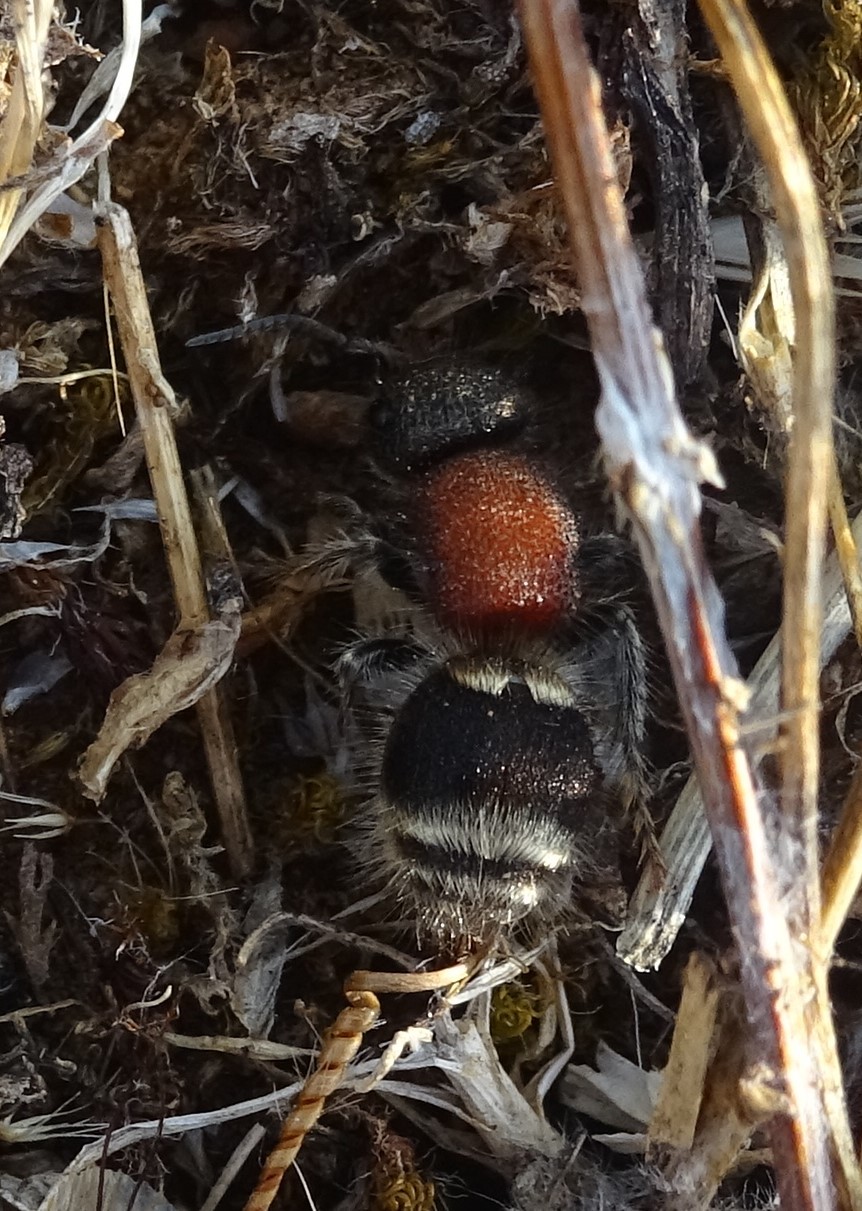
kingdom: Animalia
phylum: Arthropoda
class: Insecta
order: Hymenoptera
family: Mutillidae
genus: Tropidotilla
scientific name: Tropidotilla litoralis
